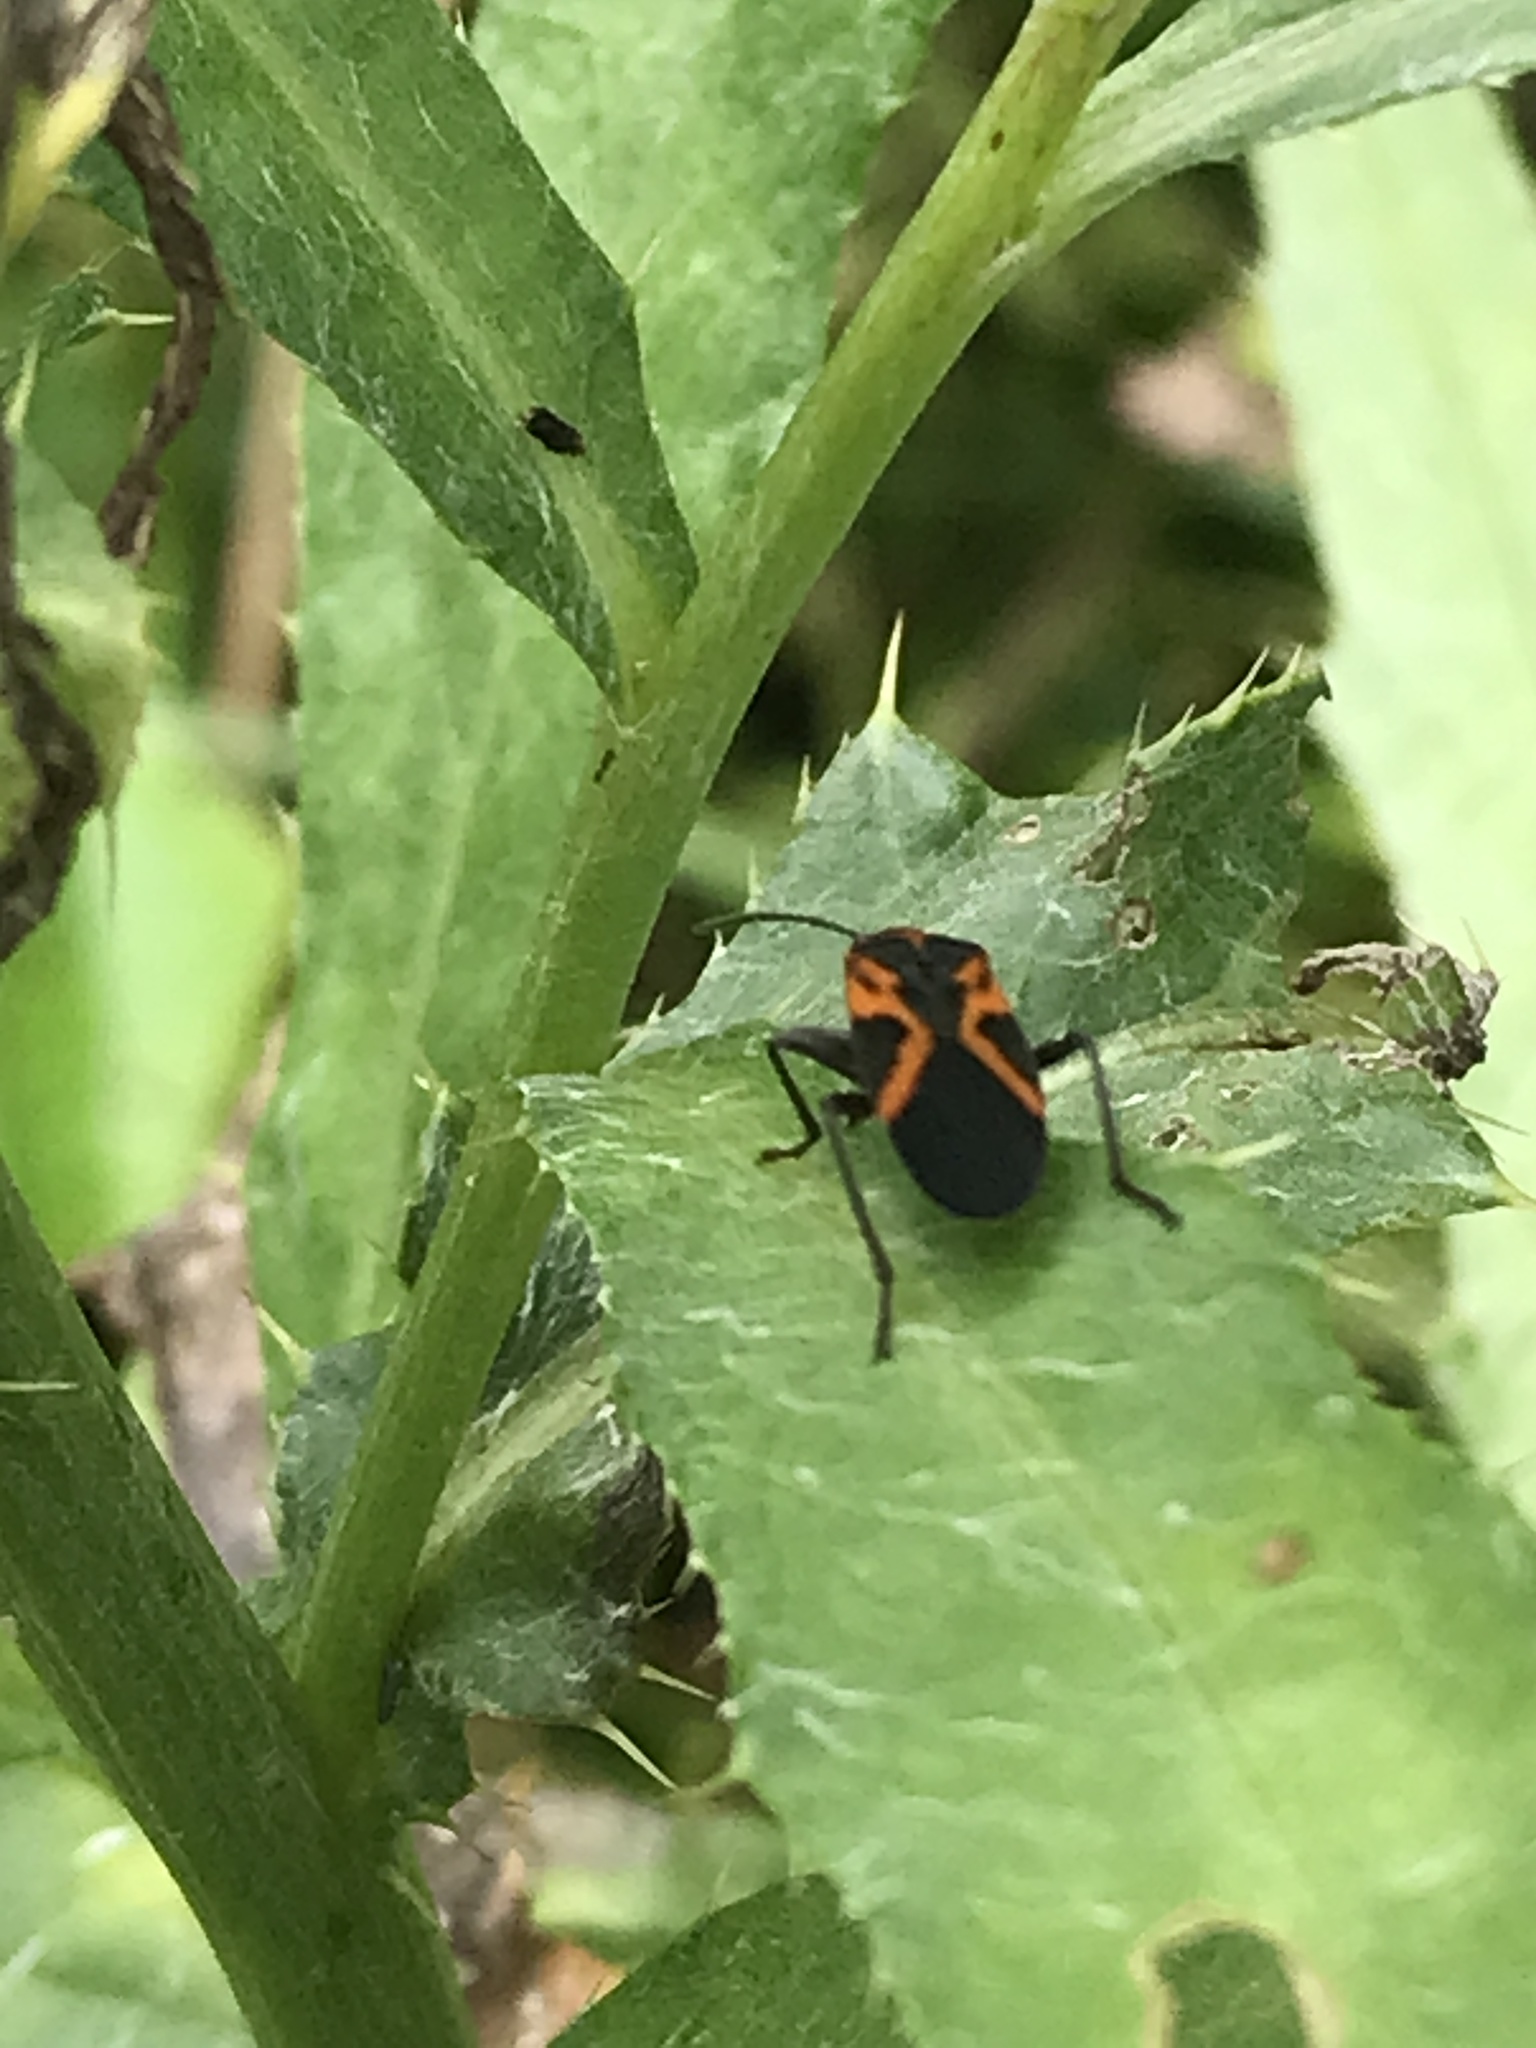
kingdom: Animalia
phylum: Arthropoda
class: Insecta
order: Hemiptera
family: Lygaeidae
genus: Lygaeus
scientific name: Lygaeus turcicus
